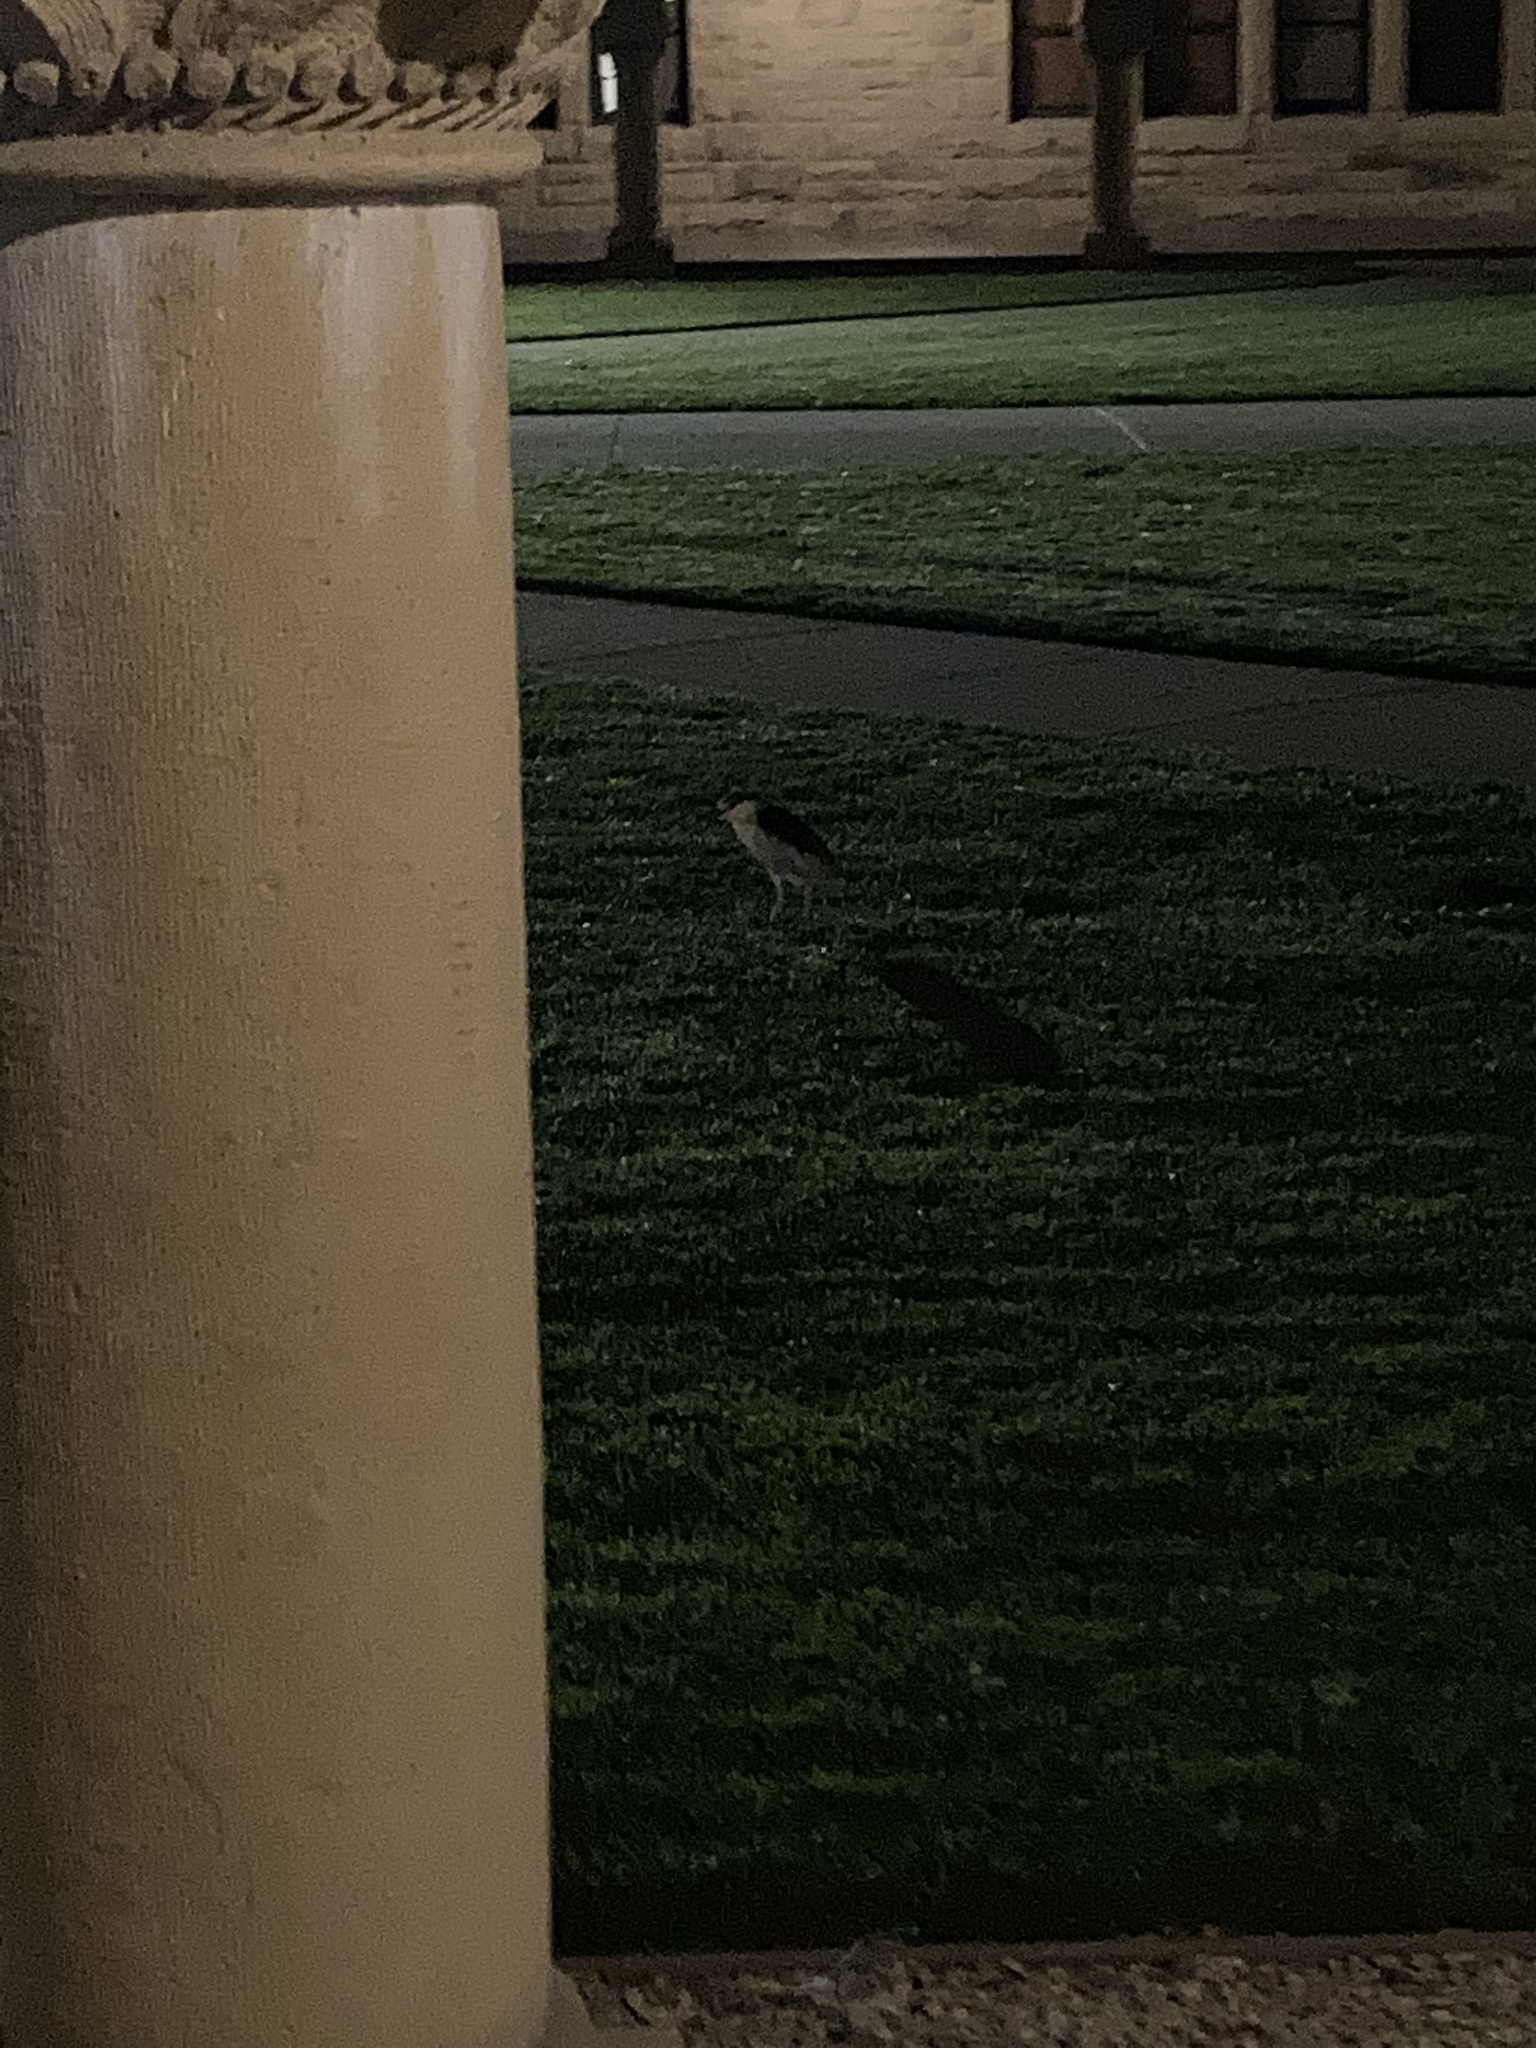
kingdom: Animalia
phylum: Chordata
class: Aves
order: Pelecaniformes
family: Ardeidae
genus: Nycticorax
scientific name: Nycticorax nycticorax
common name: Black-crowned night heron
